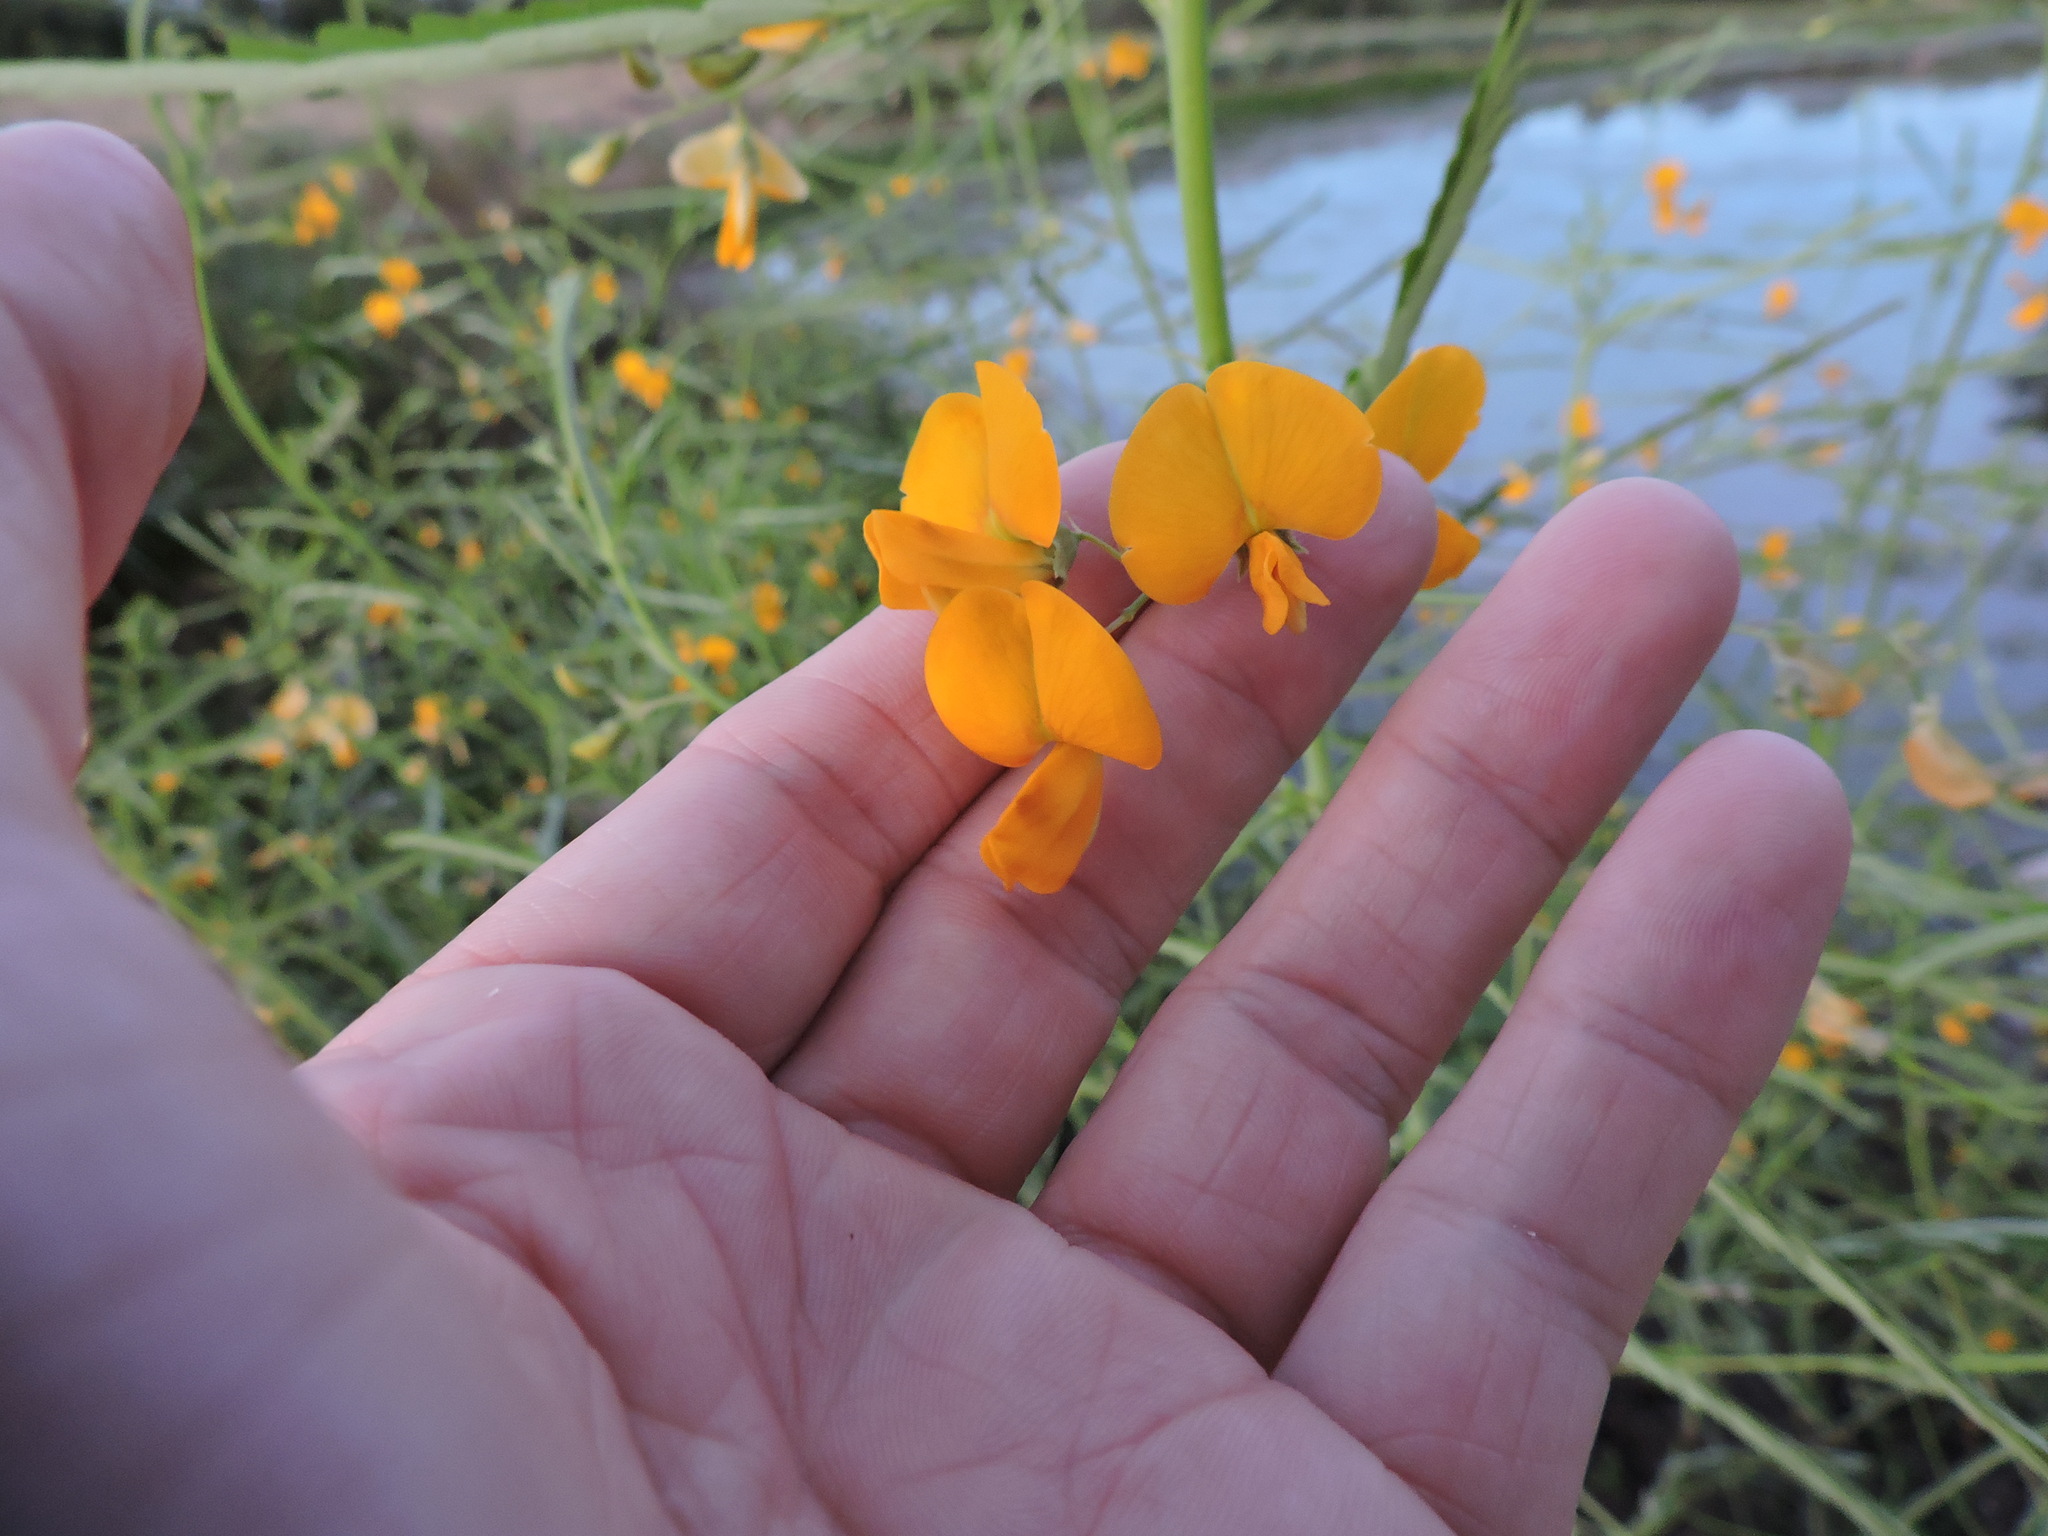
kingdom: Plantae
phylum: Tracheophyta
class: Magnoliopsida
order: Fabales
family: Fabaceae
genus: Sesbania
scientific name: Sesbania herbacea
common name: Bigpod sesbania
